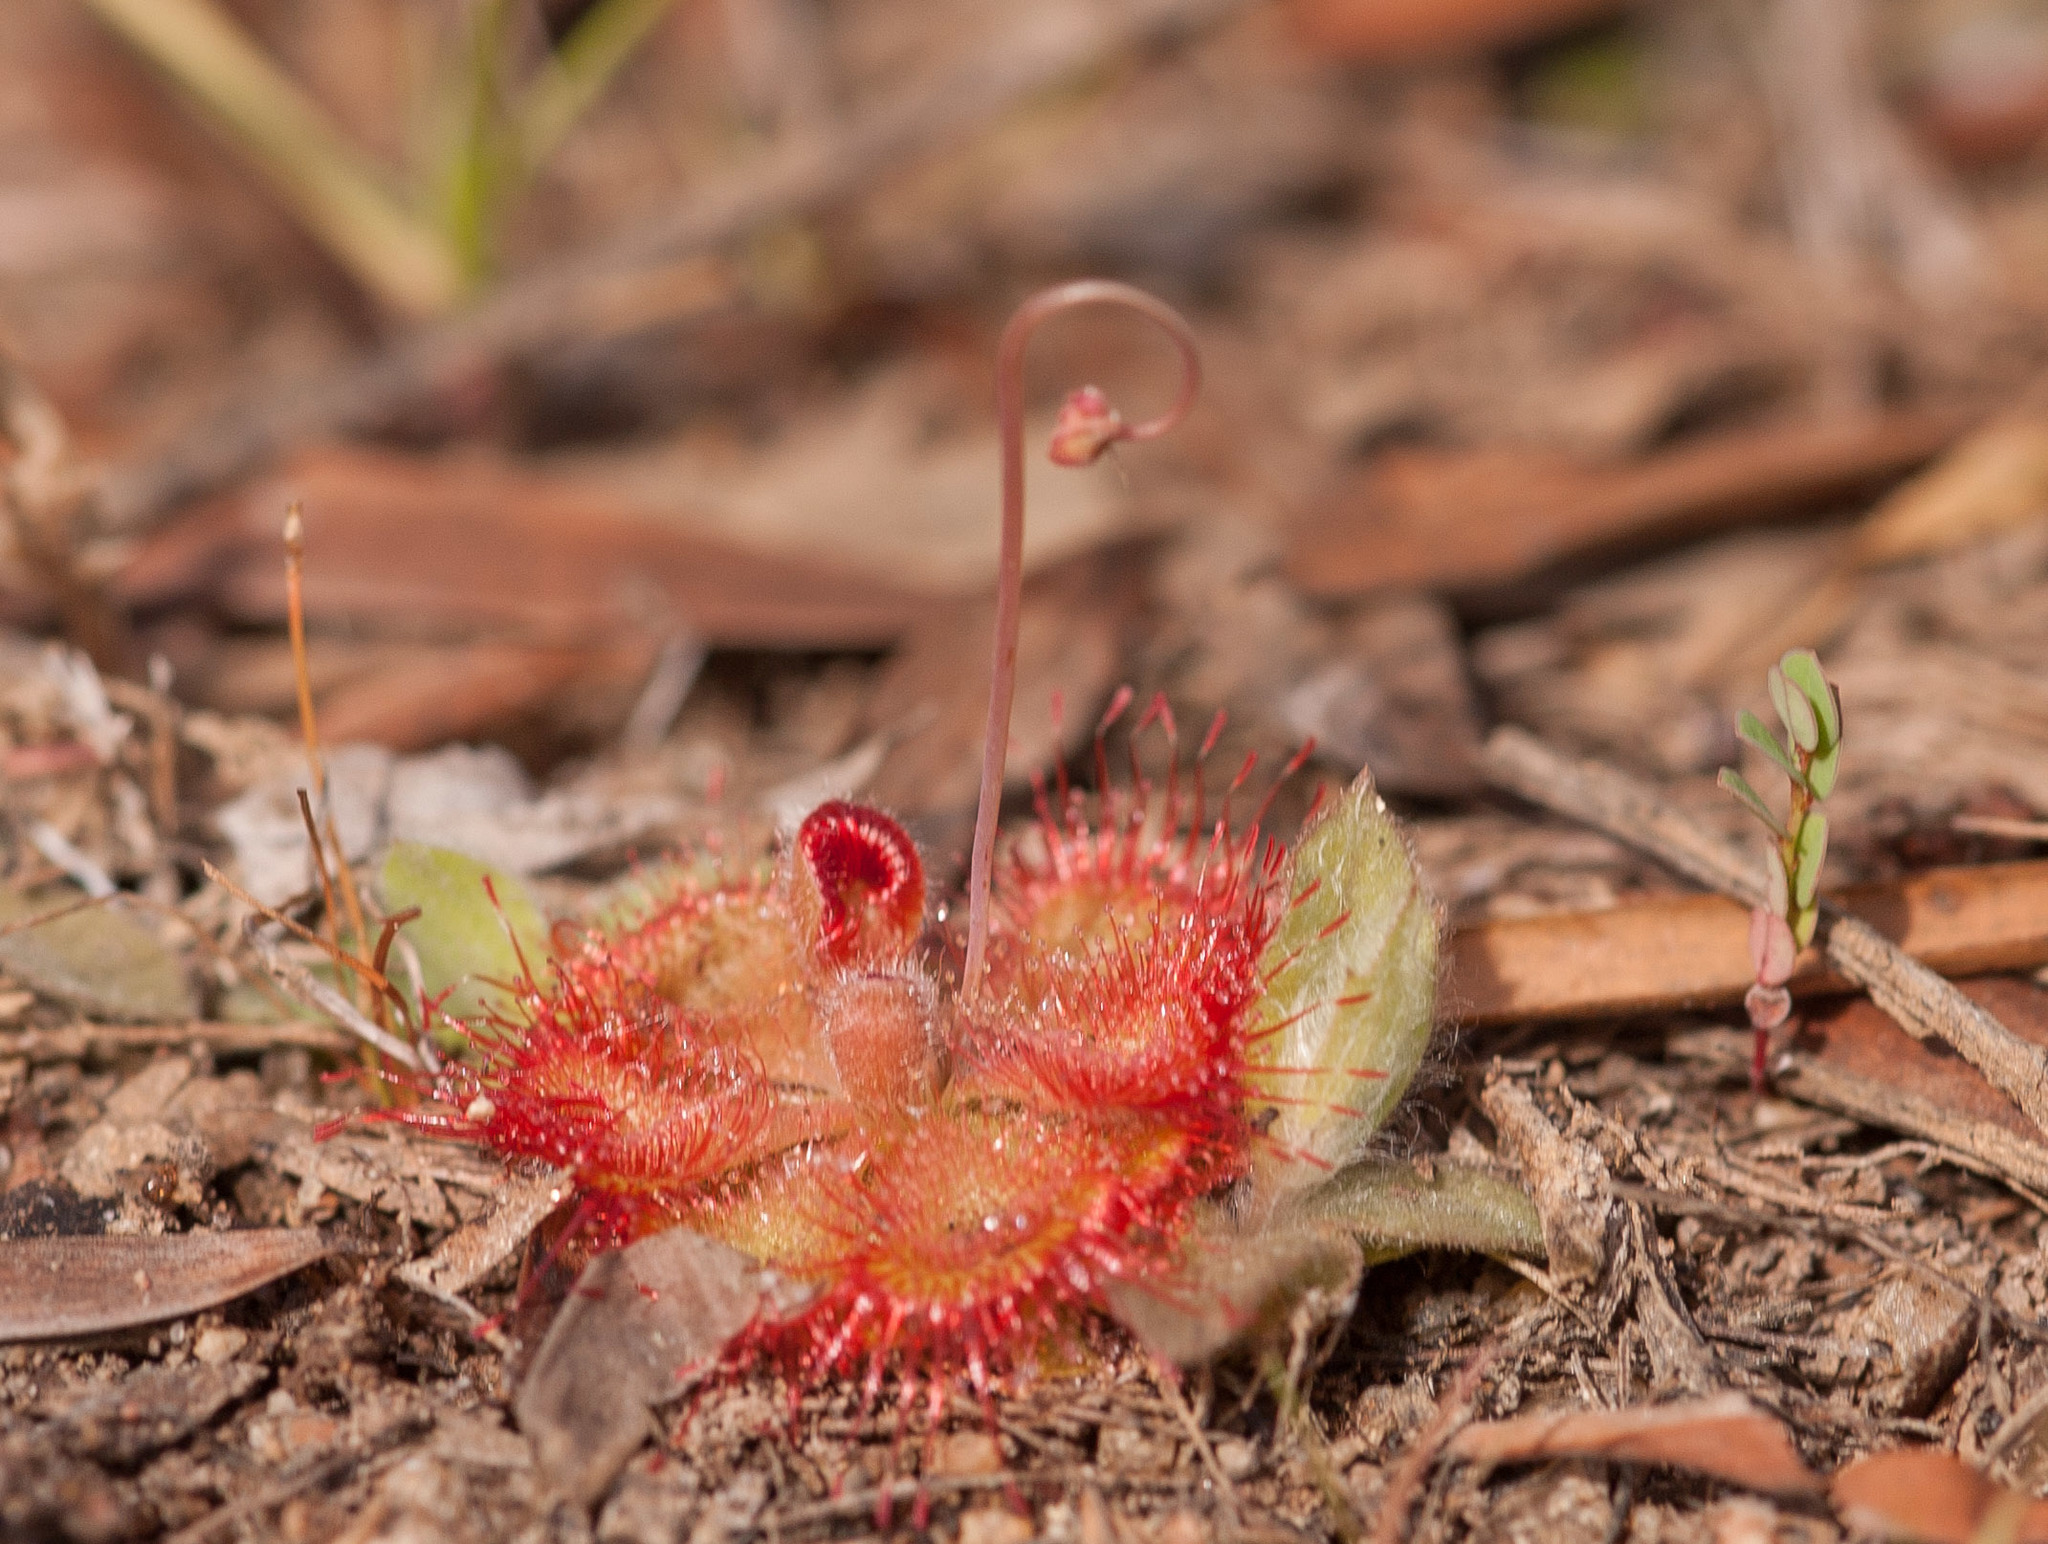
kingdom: Plantae
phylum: Tracheophyta
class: Magnoliopsida
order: Caryophyllales
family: Droseraceae
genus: Drosera
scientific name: Drosera spatulata
